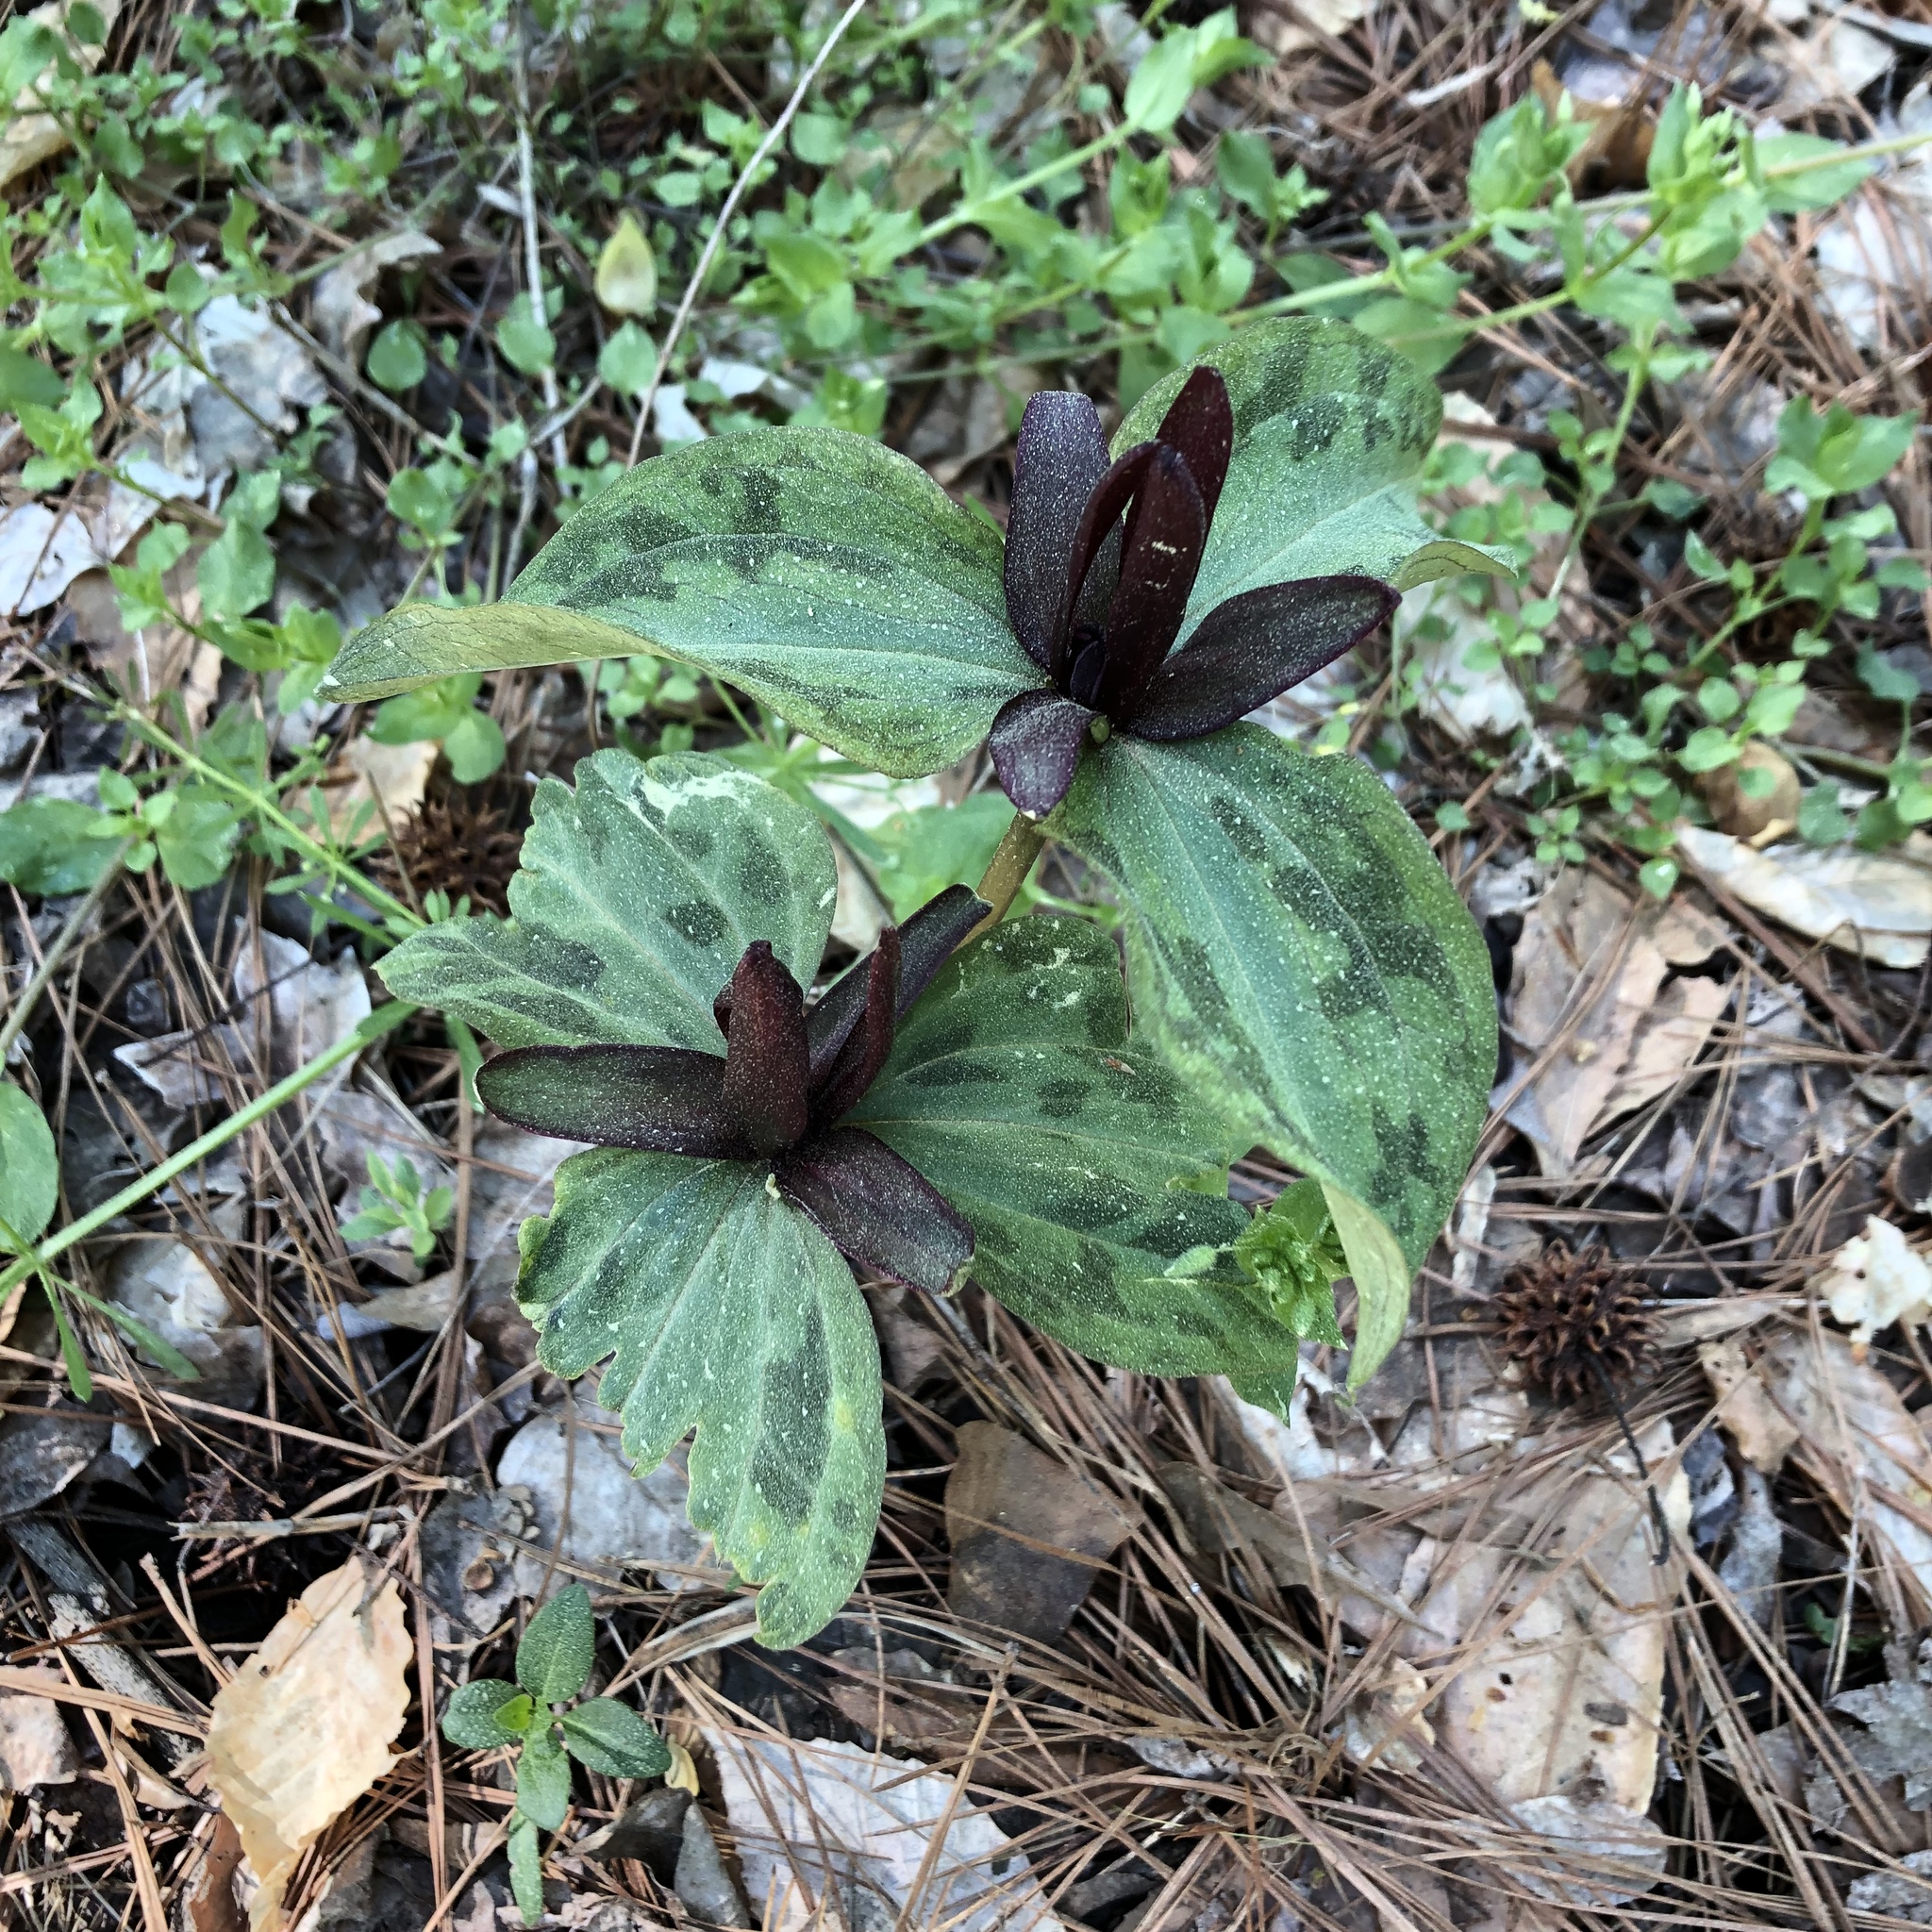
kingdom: Plantae
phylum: Tracheophyta
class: Liliopsida
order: Liliales
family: Melanthiaceae
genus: Trillium
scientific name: Trillium cuneatum
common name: Cuneate trillium
